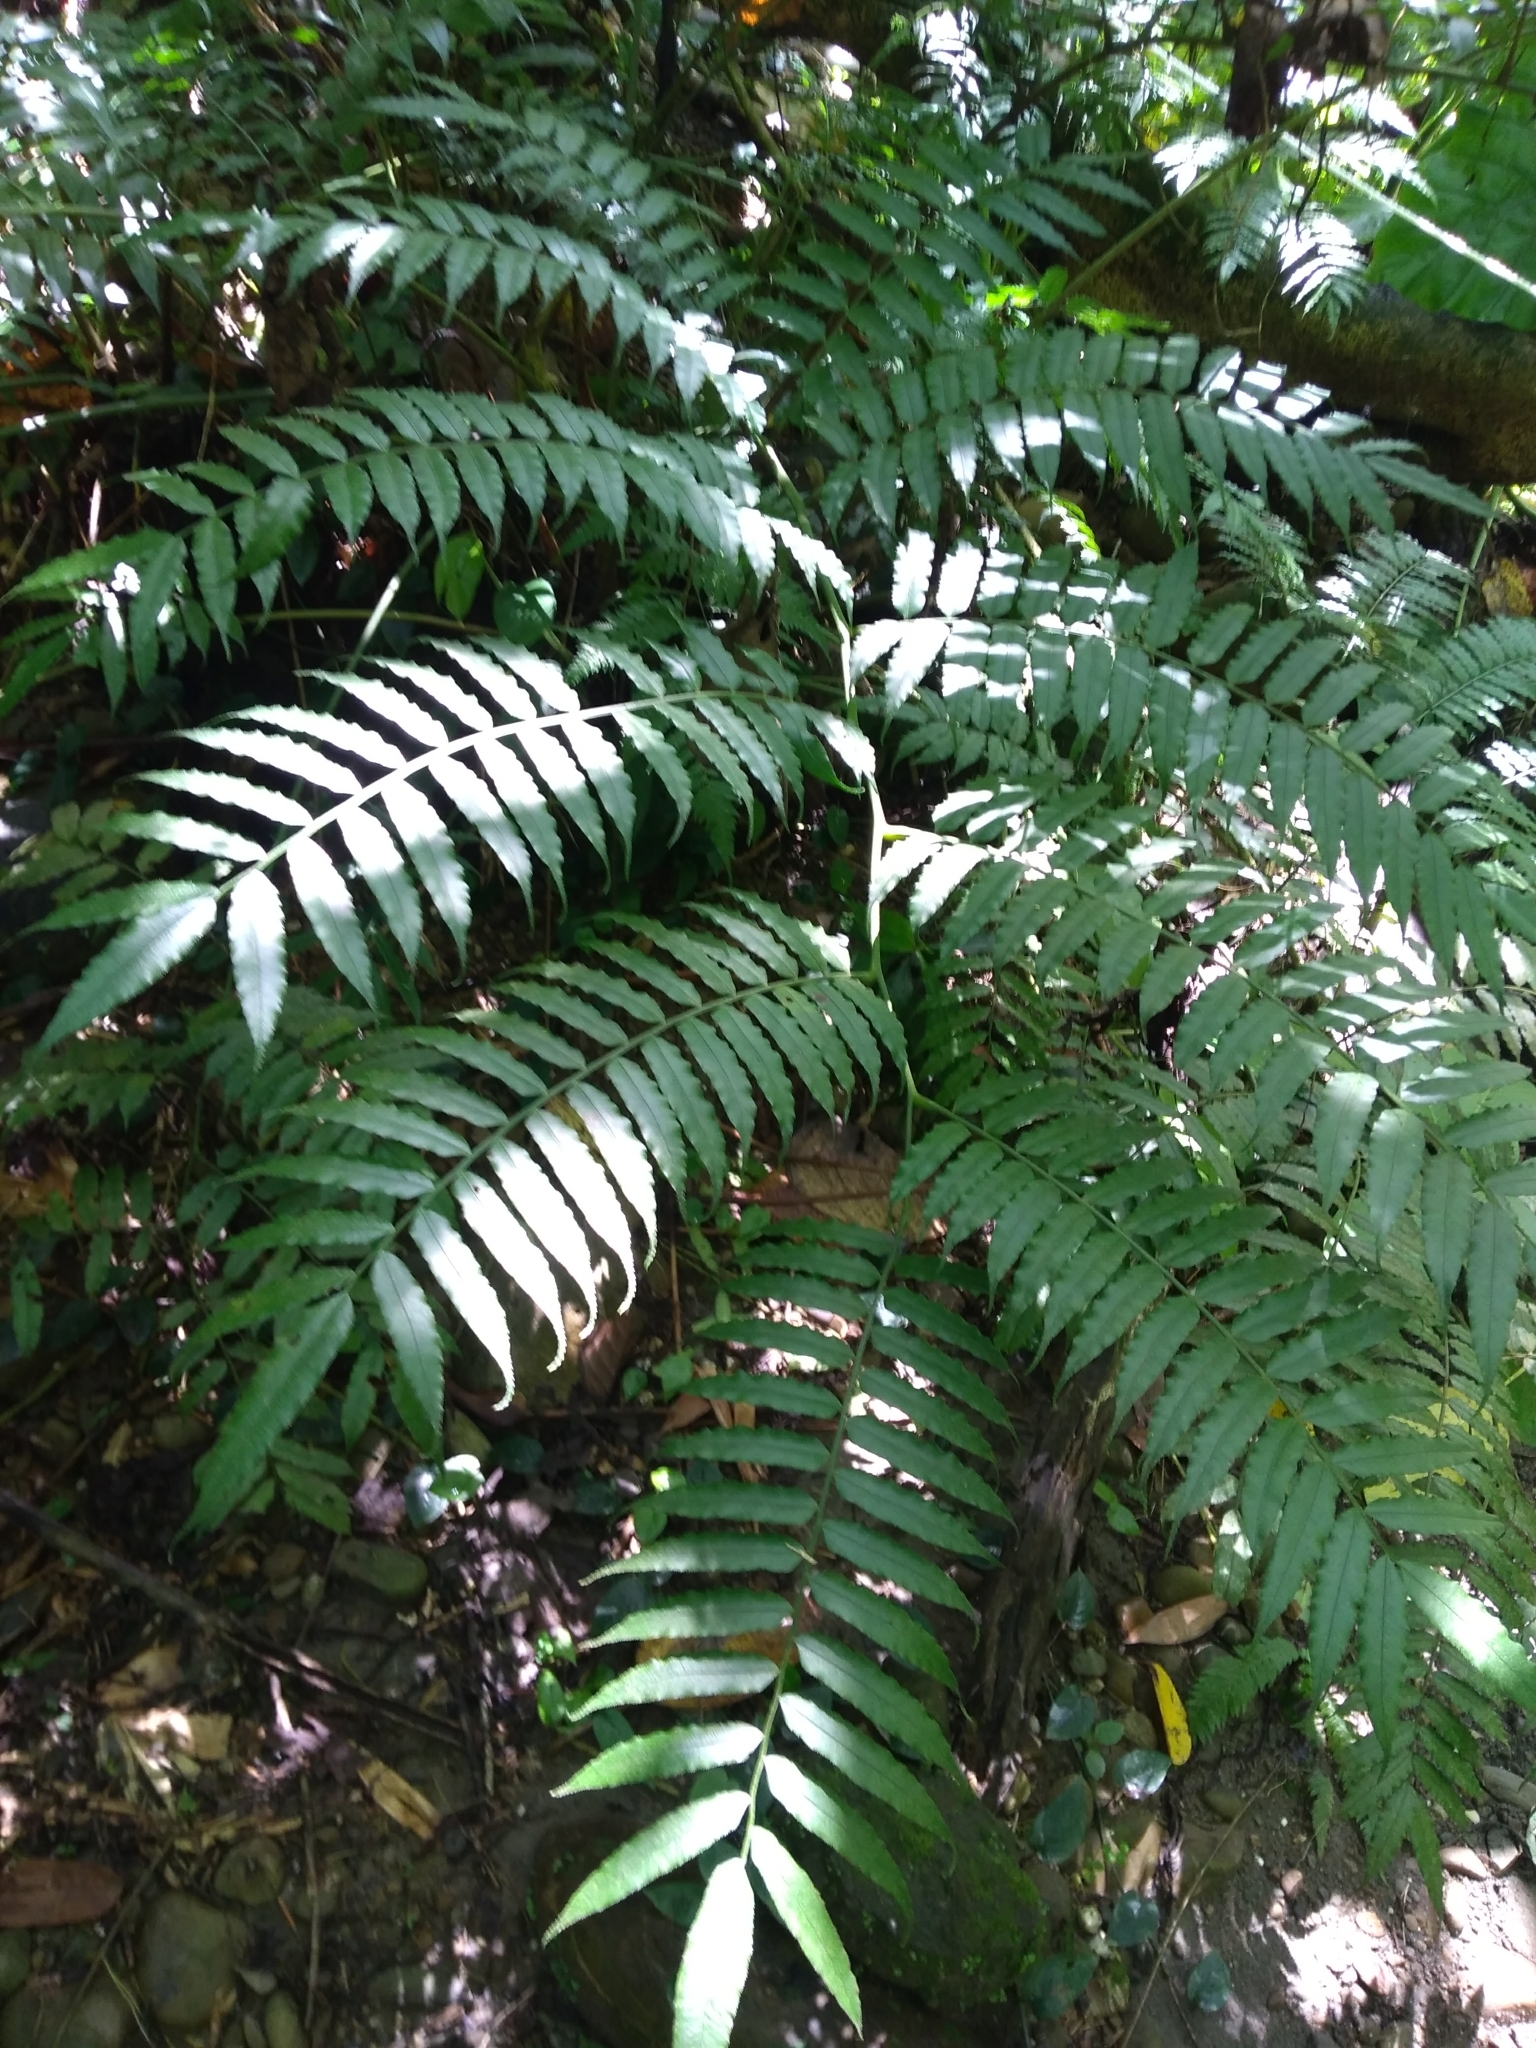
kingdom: Plantae
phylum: Tracheophyta
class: Polypodiopsida
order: Marattiales
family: Marattiaceae
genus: Angiopteris
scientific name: Angiopteris lygodiifolia
